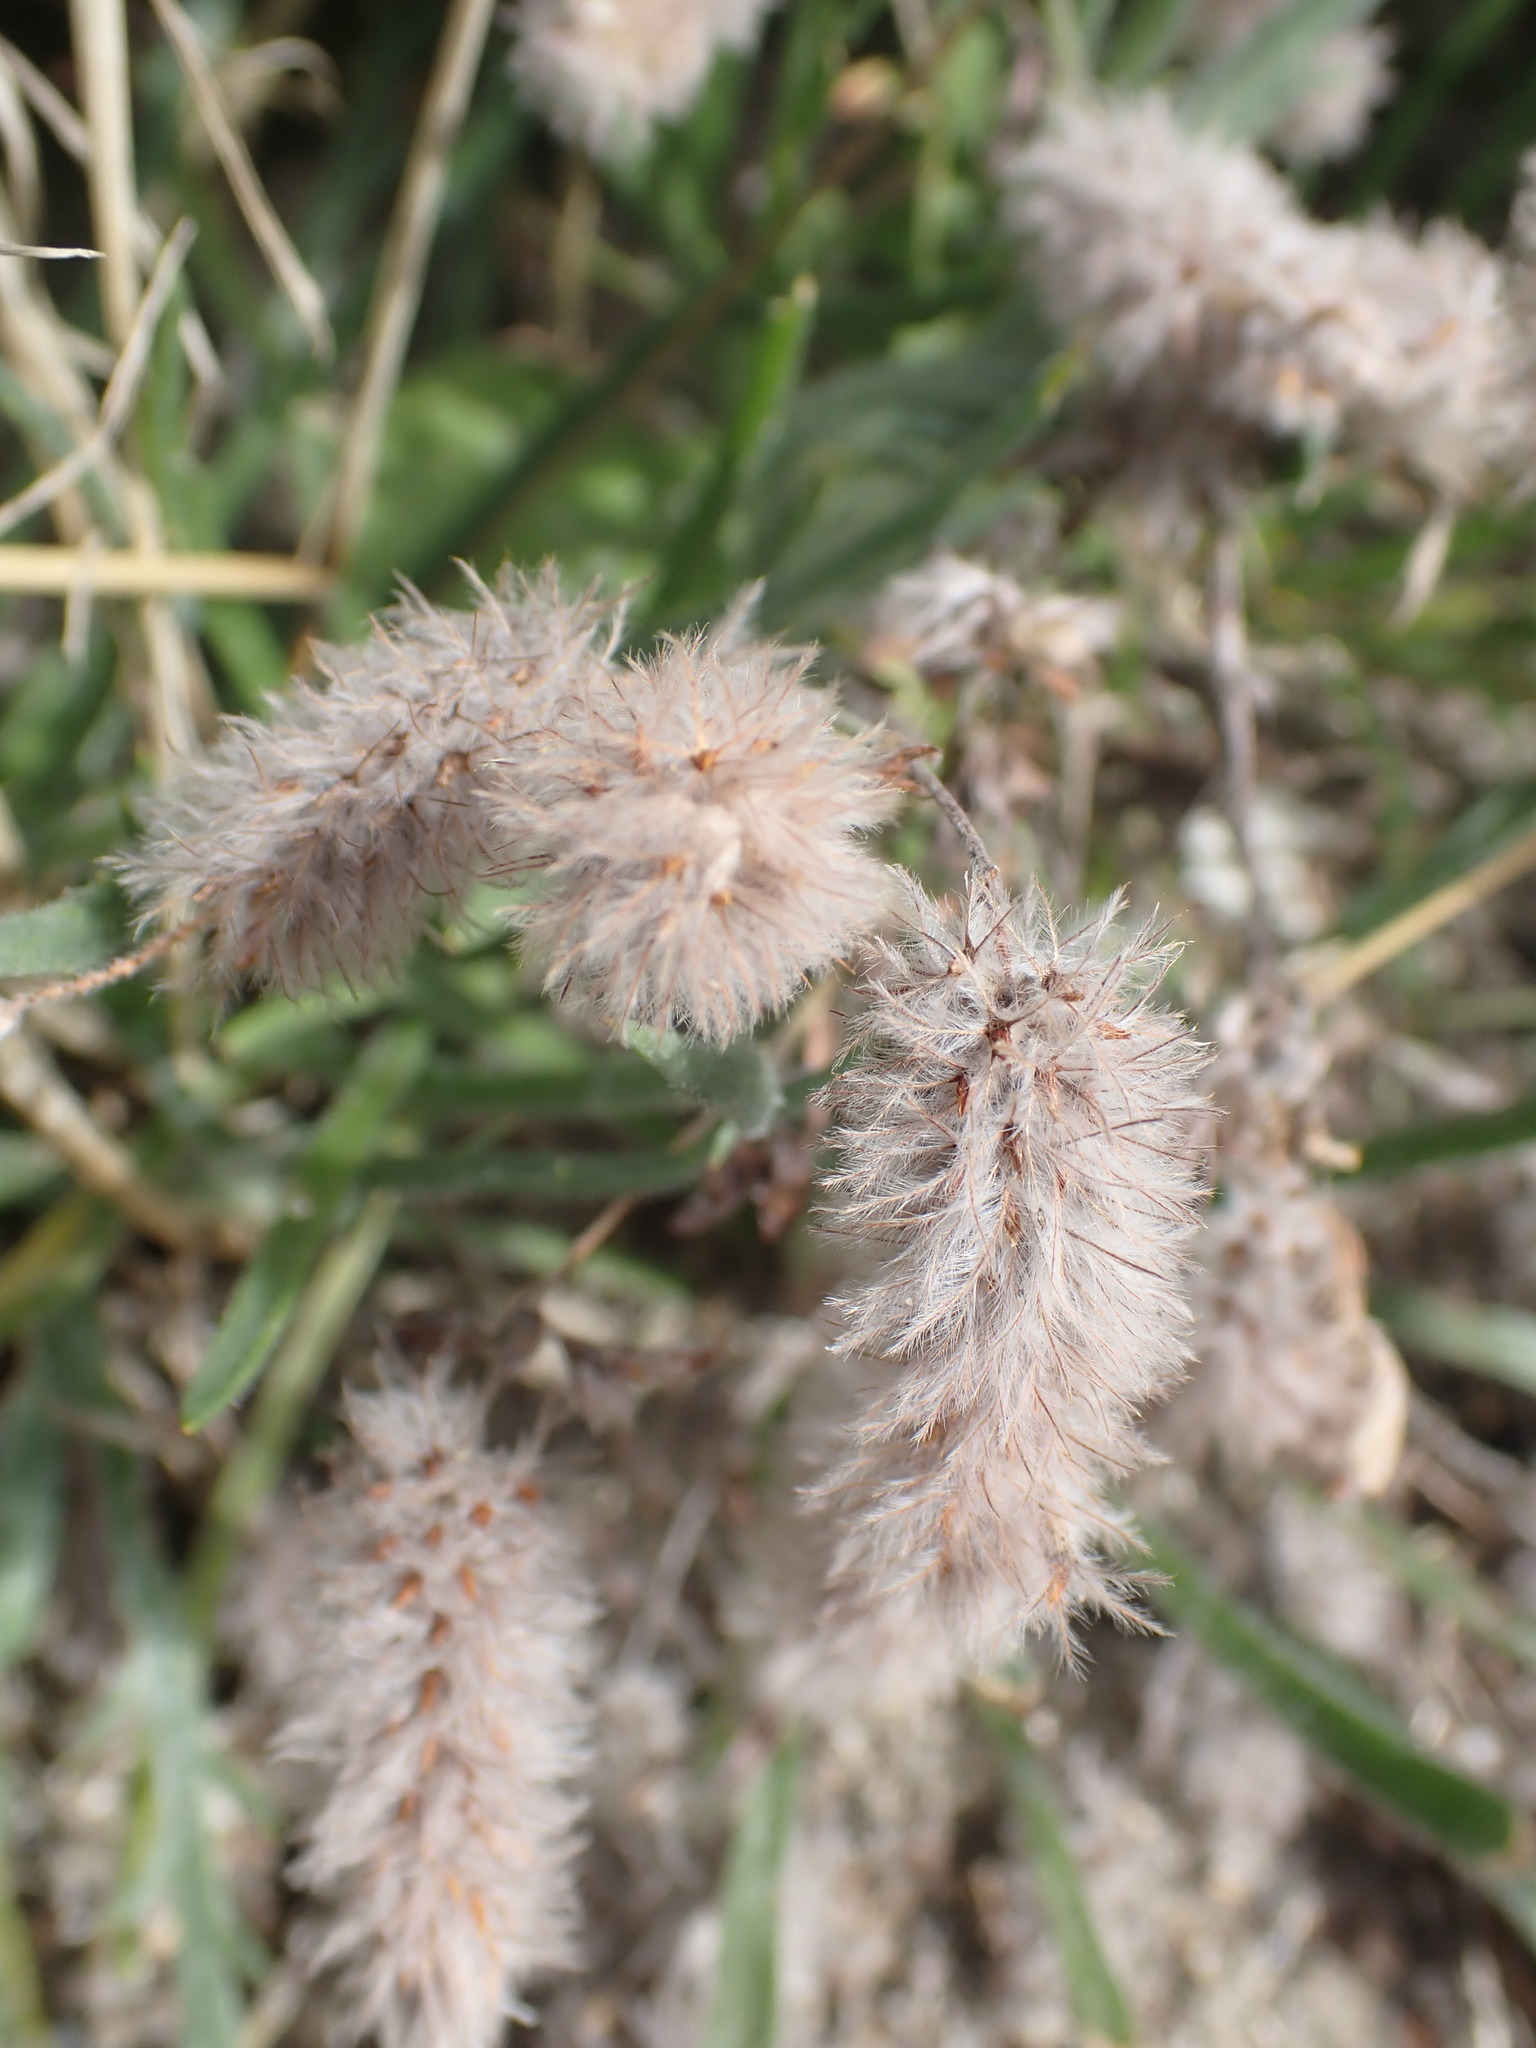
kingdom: Plantae
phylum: Tracheophyta
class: Magnoliopsida
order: Fabales
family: Fabaceae
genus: Trifolium
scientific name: Trifolium arvense
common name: Hare's-foot clover
